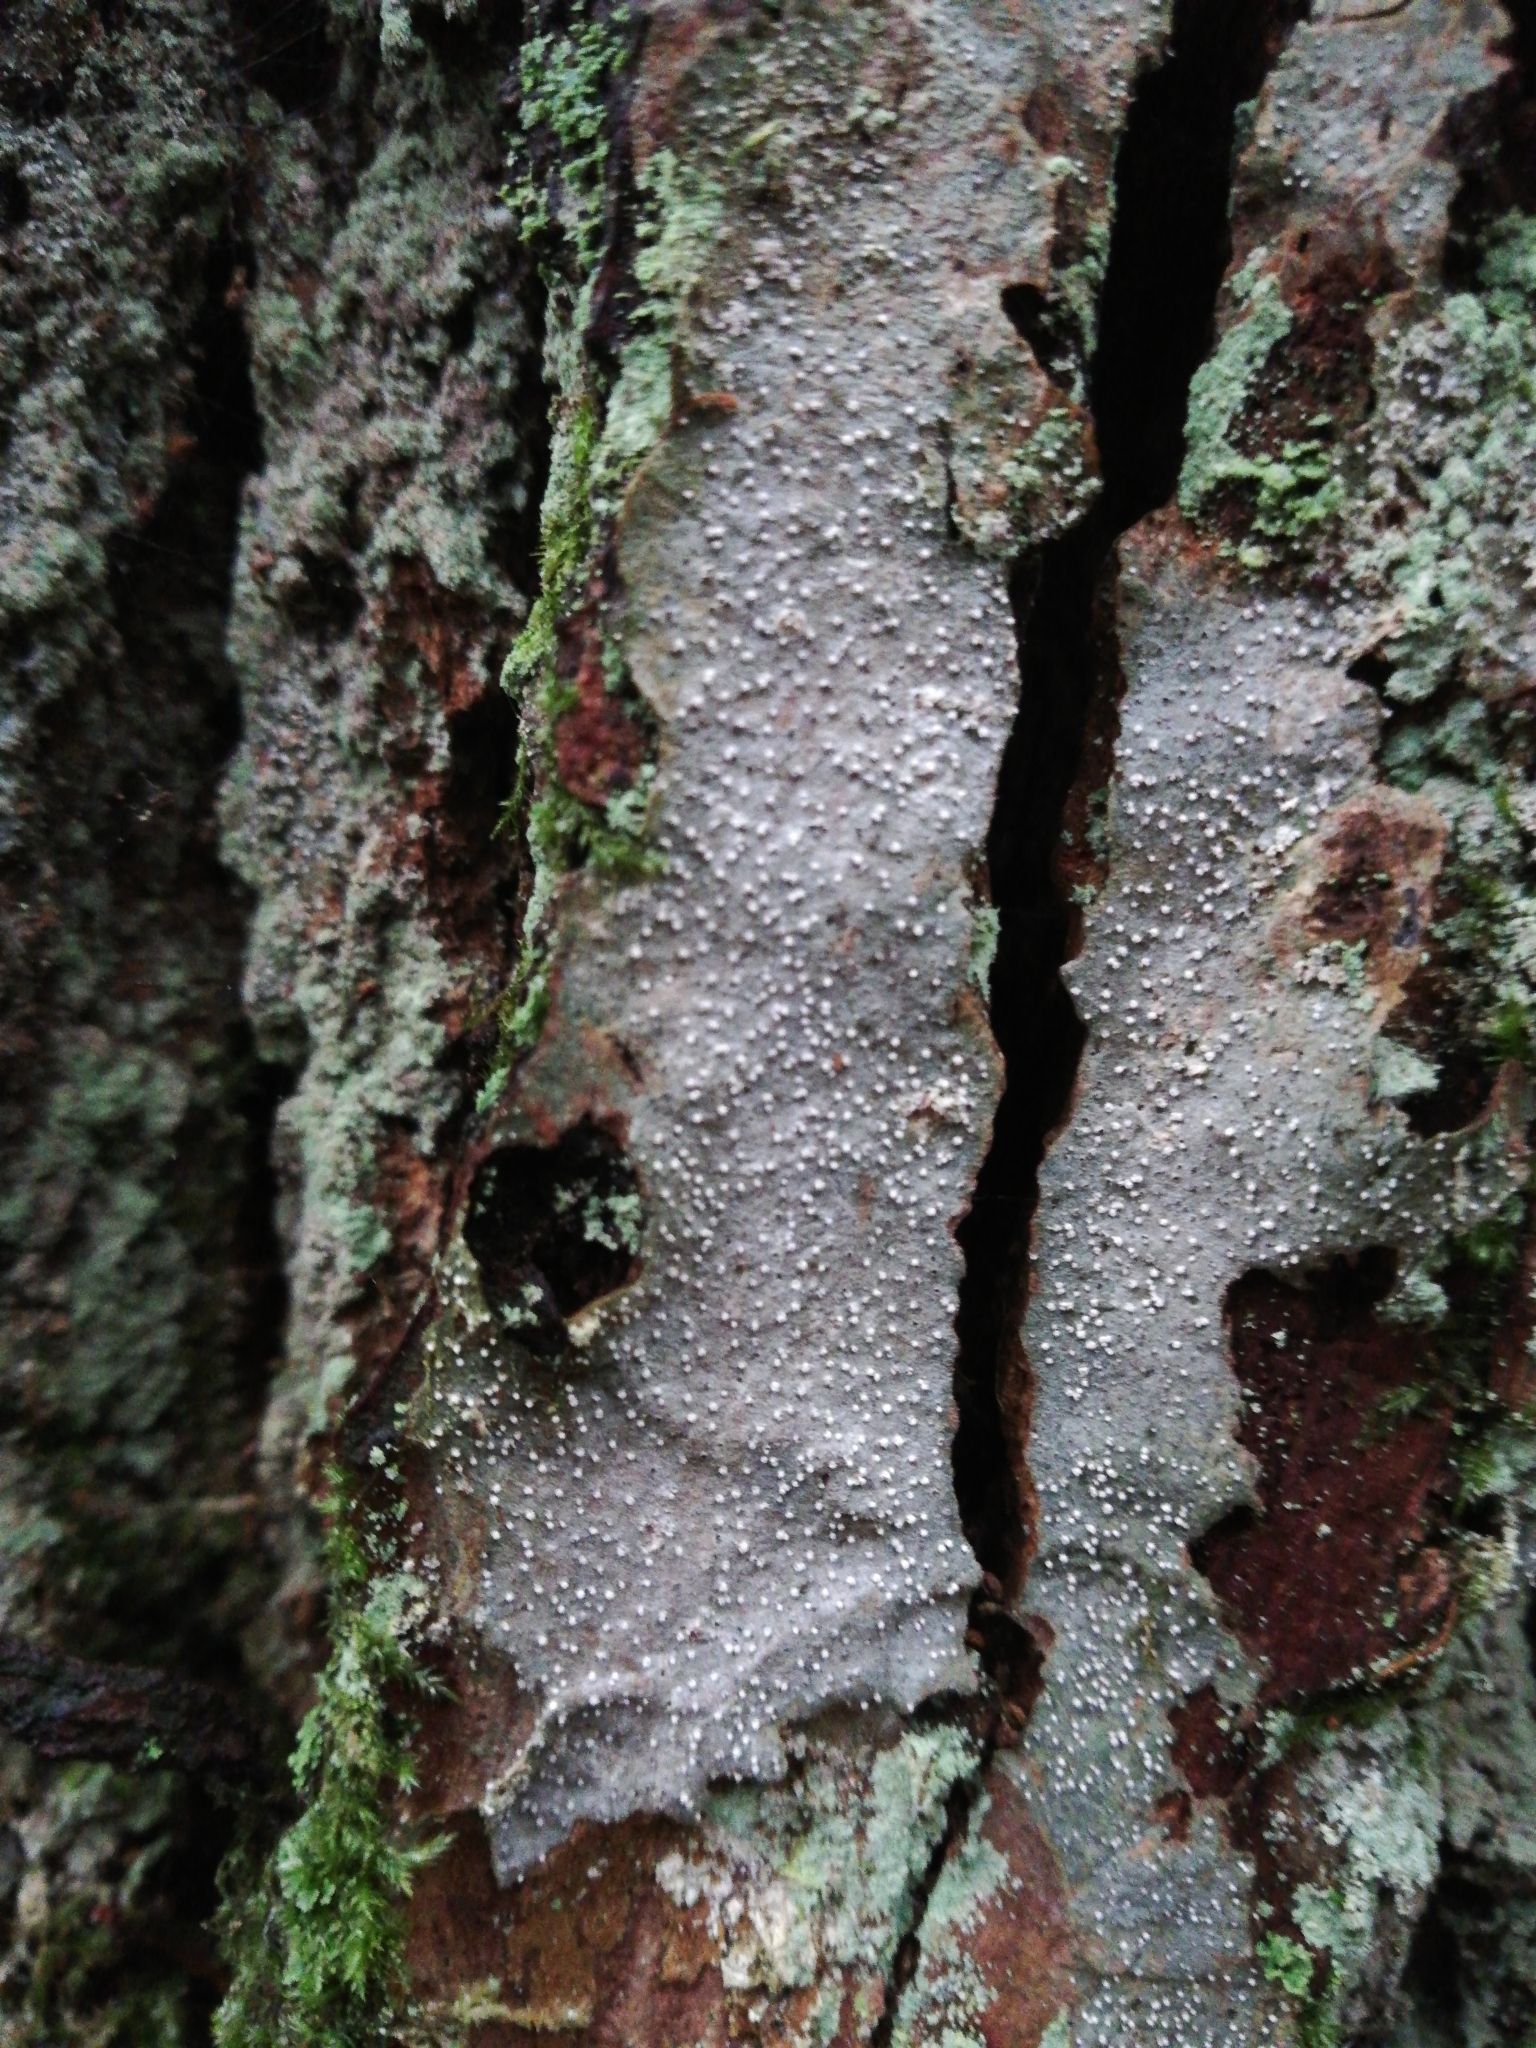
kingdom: Fungi
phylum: Ascomycota
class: Arthoniomycetes
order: Arthoniales
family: Roccellaceae
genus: Lecanactis
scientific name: Lecanactis abietina
